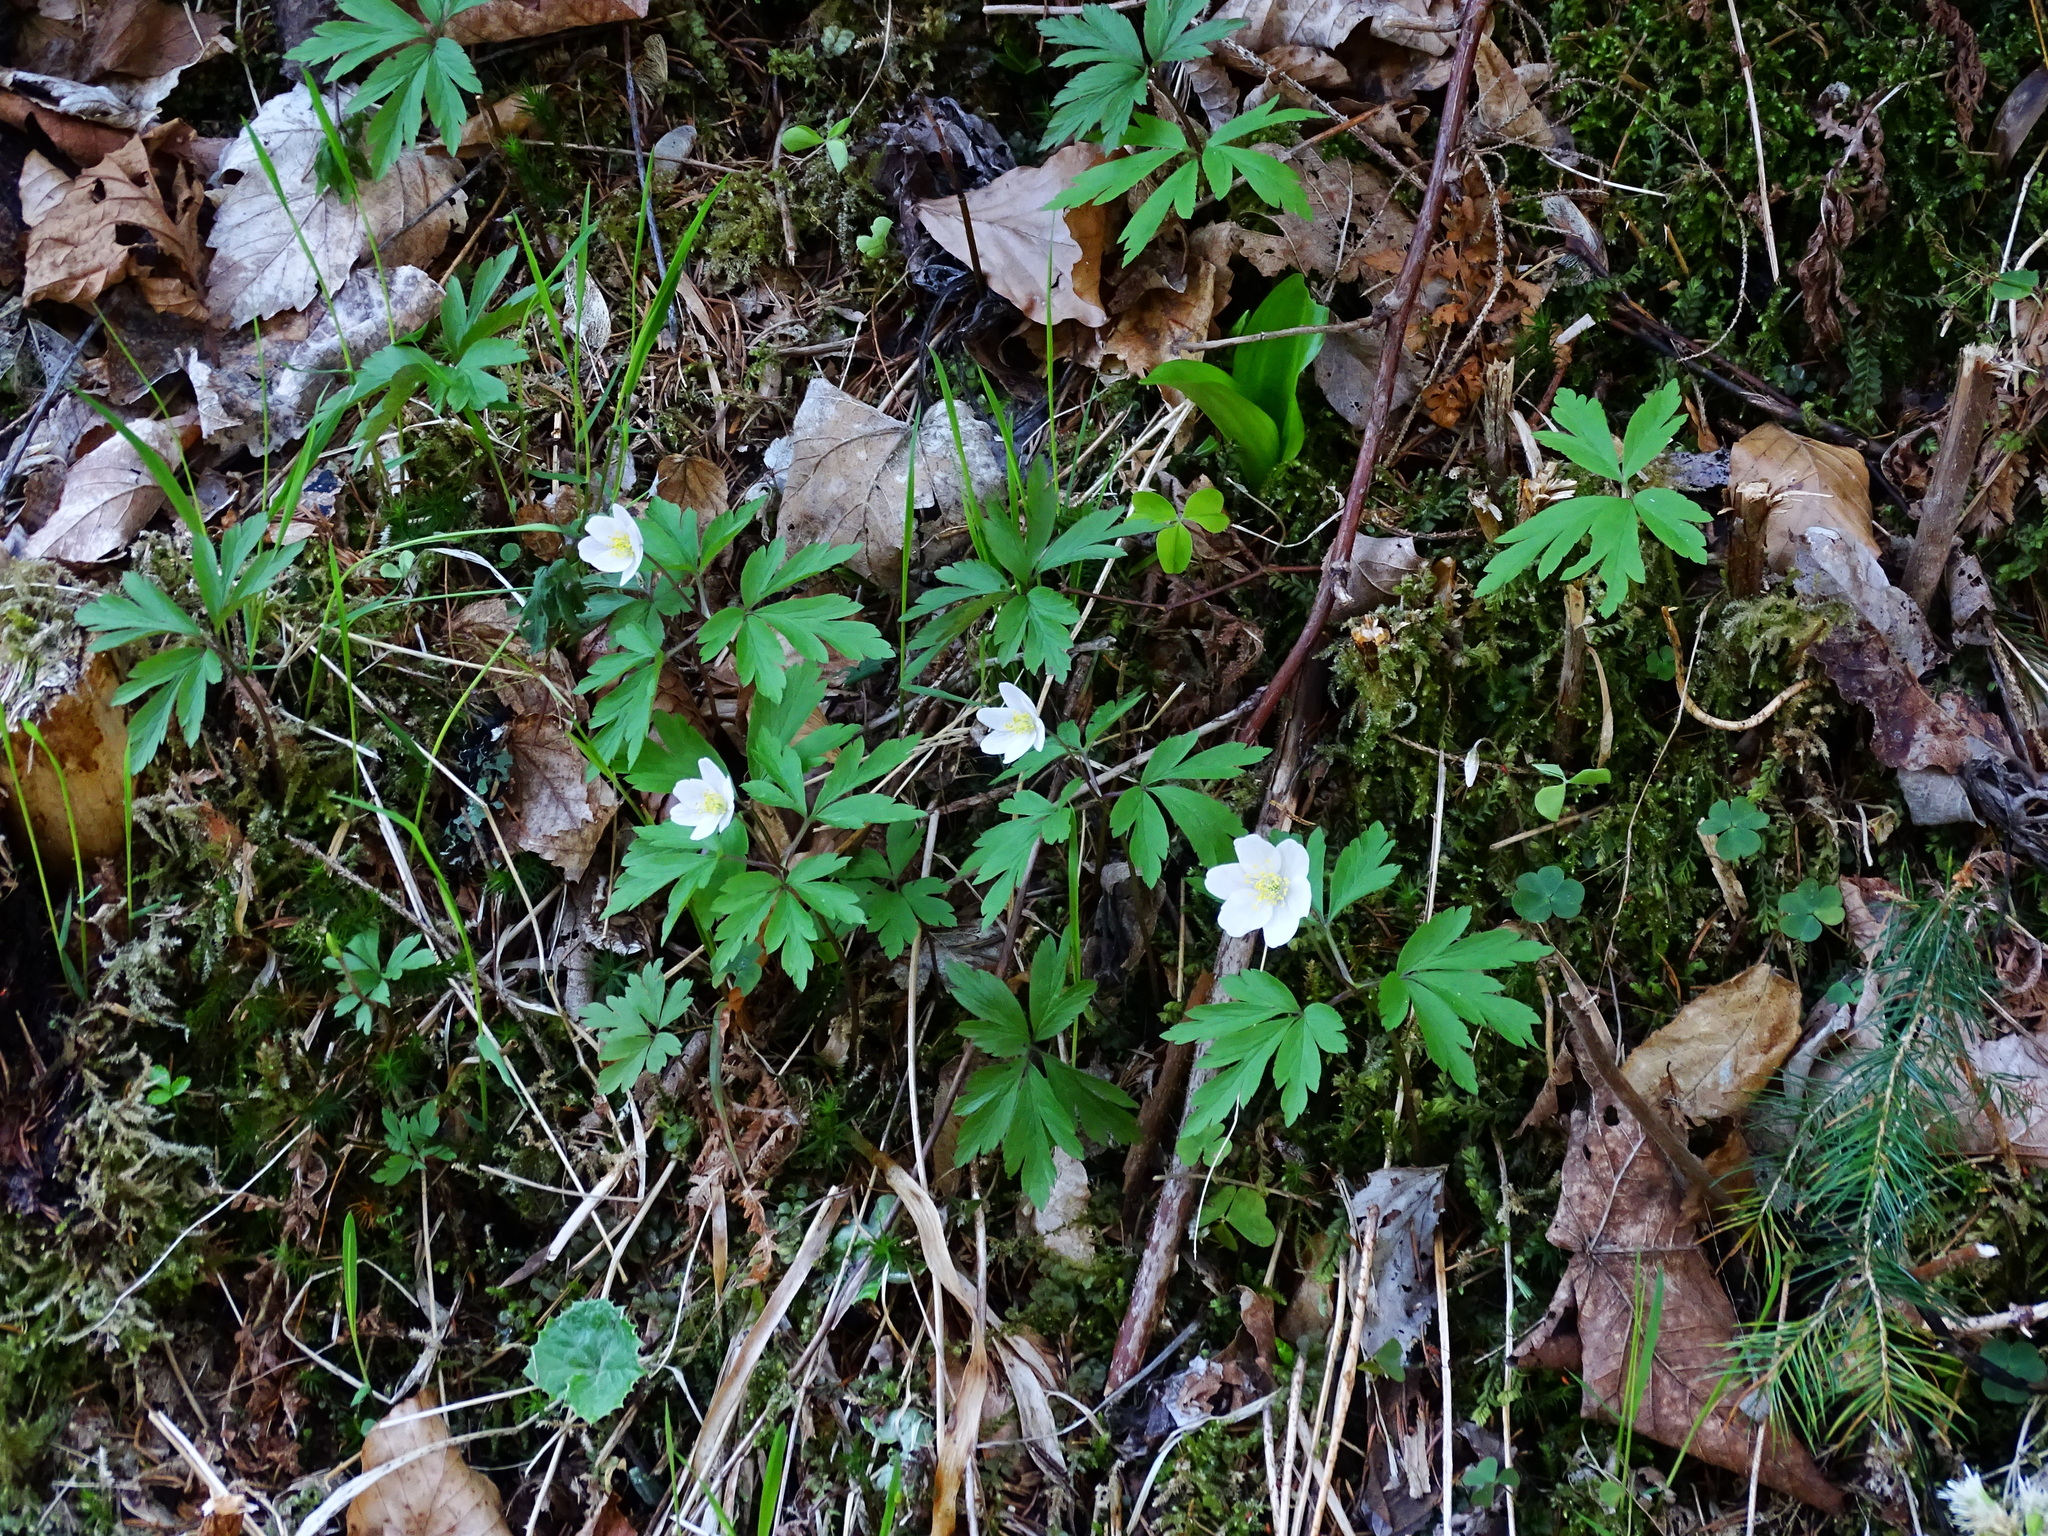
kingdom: Plantae
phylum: Tracheophyta
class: Magnoliopsida
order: Ranunculales
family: Ranunculaceae
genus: Anemone
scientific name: Anemone nemorosa
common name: Wood anemone
